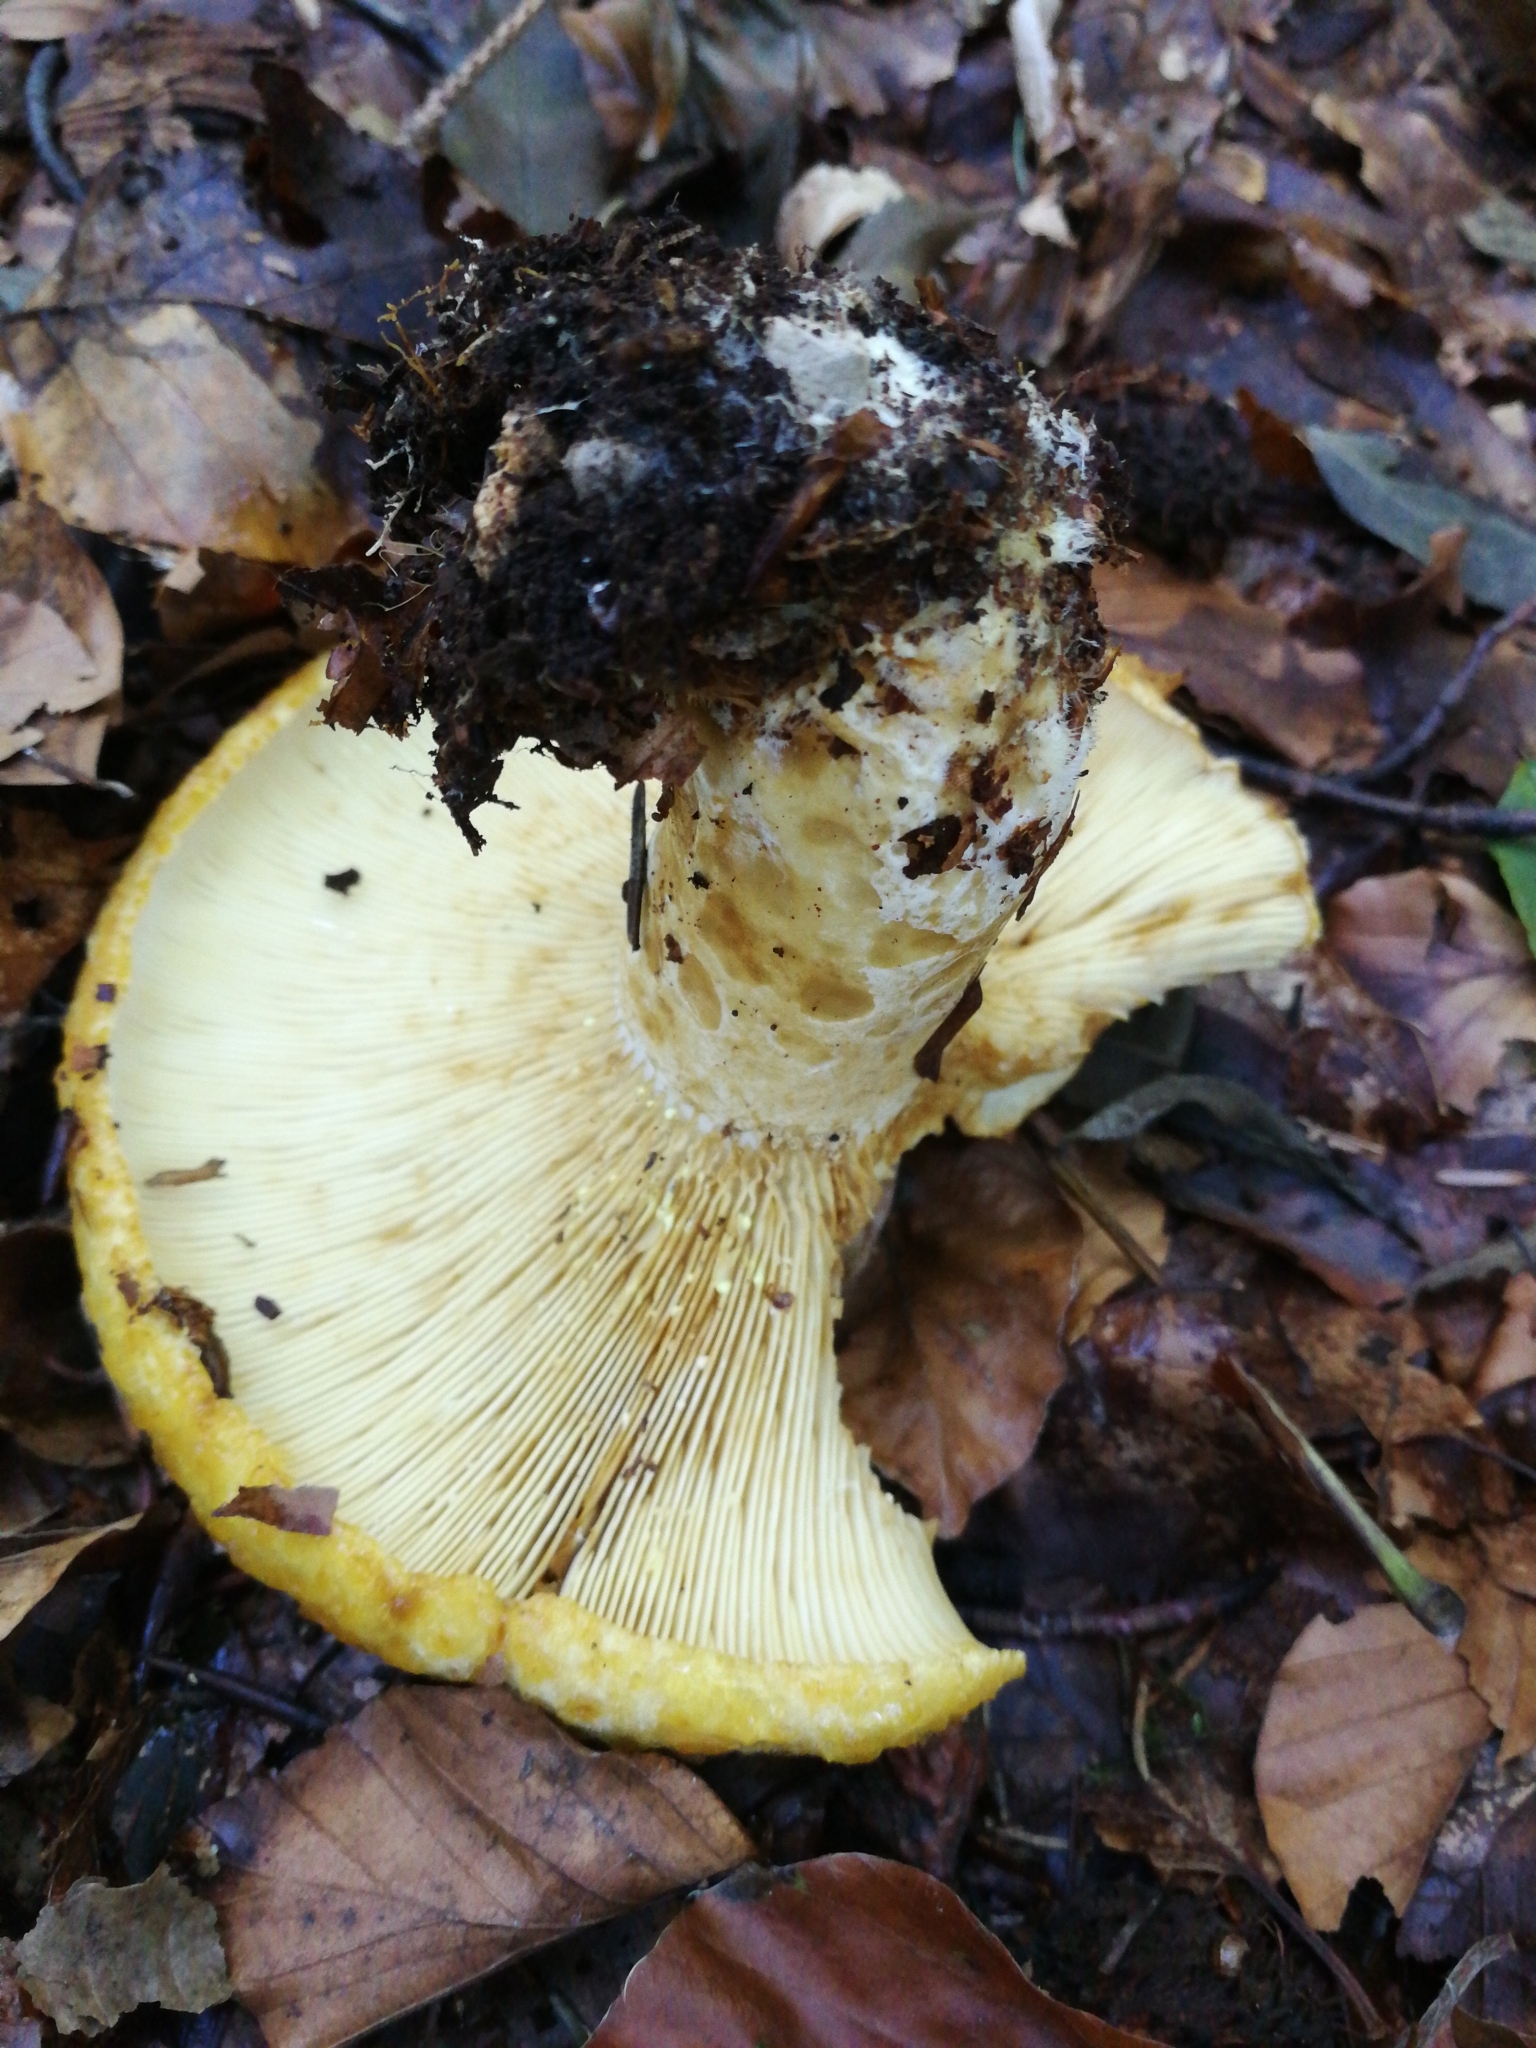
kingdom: Fungi
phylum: Basidiomycota
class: Agaricomycetes
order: Russulales
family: Russulaceae
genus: Lactarius
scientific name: Lactarius scrobiculatus
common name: Spotted milkcap
